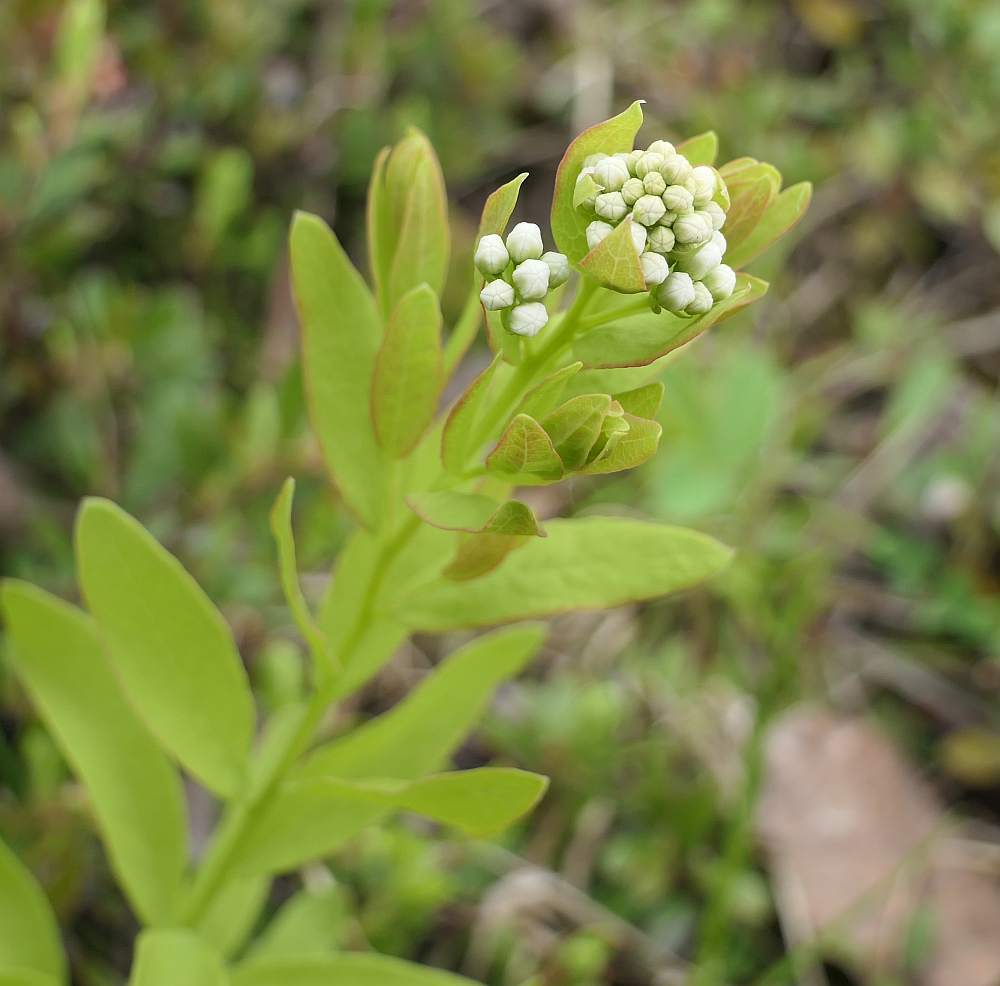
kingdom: Plantae
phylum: Tracheophyta
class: Magnoliopsida
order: Santalales
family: Comandraceae
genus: Comandra
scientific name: Comandra umbellata
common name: Bastard toadflax
